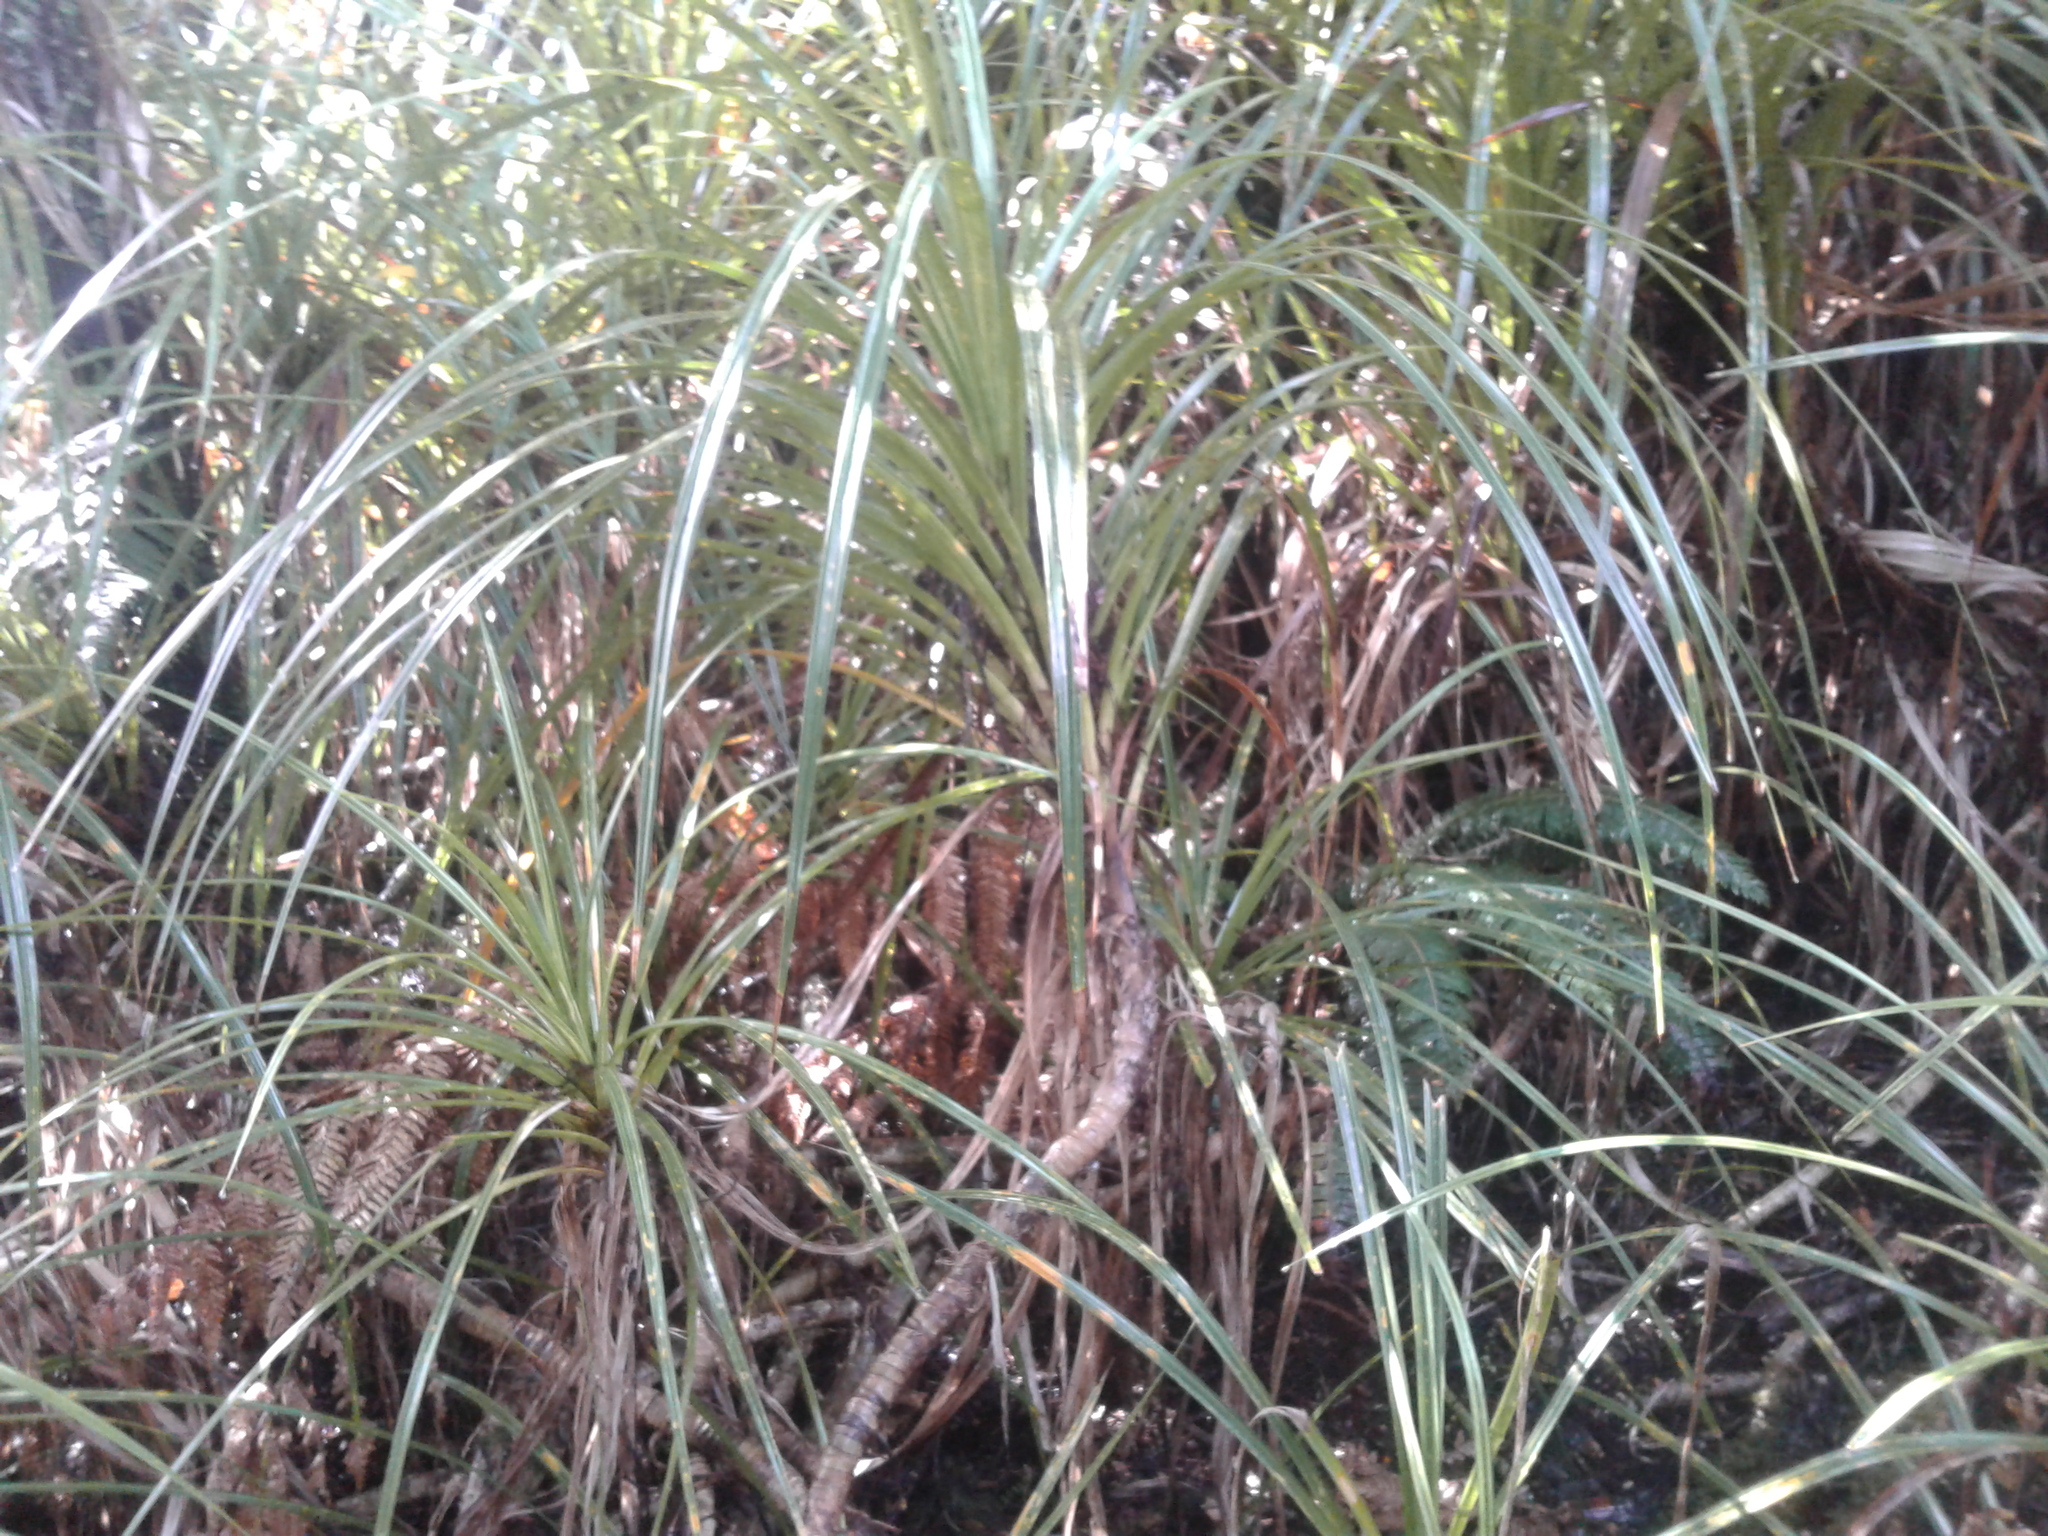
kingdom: Plantae
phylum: Tracheophyta
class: Liliopsida
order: Pandanales
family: Pandanaceae
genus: Freycinetia
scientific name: Freycinetia banksii
